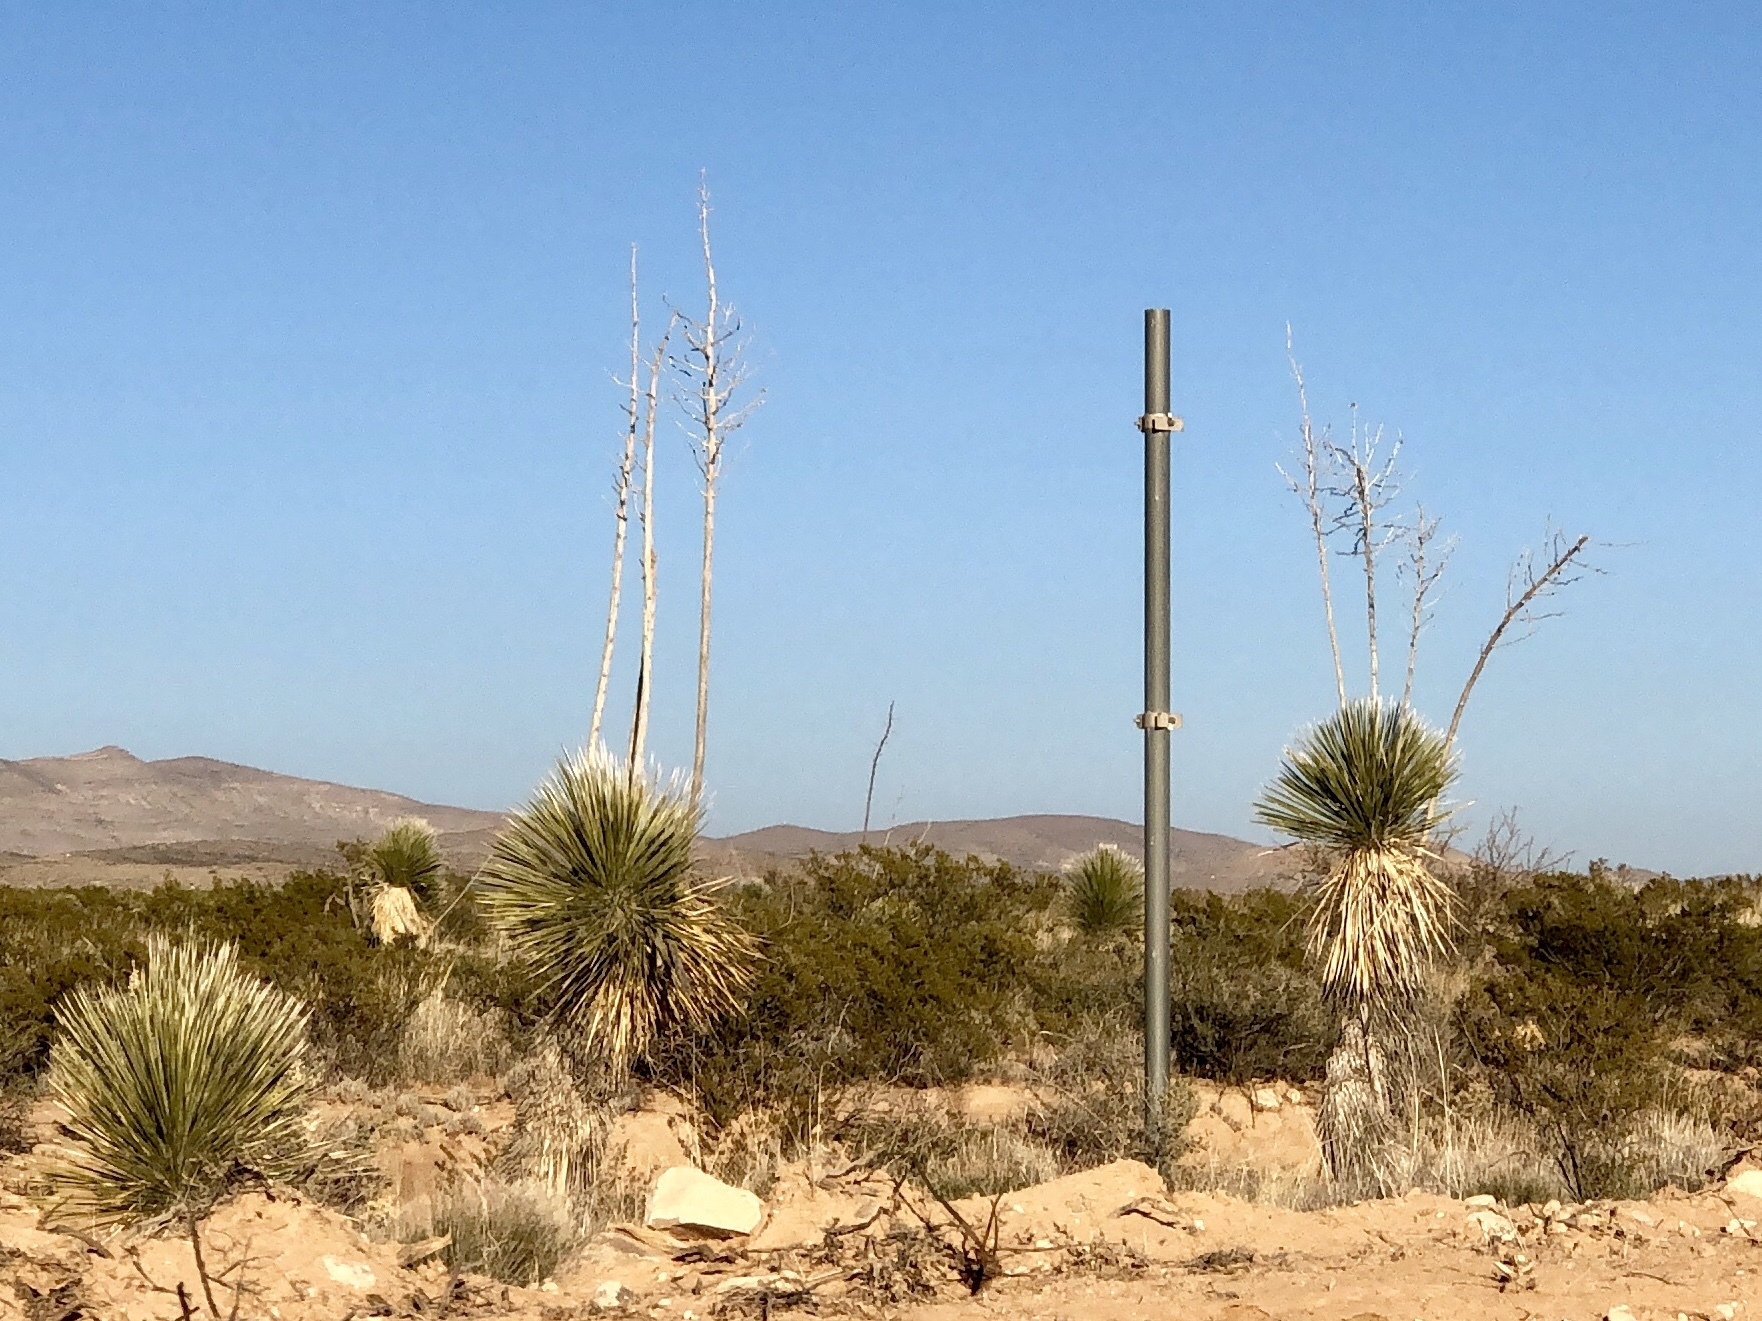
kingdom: Plantae
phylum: Tracheophyta
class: Liliopsida
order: Asparagales
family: Asparagaceae
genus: Yucca
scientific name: Yucca elata
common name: Palmella
